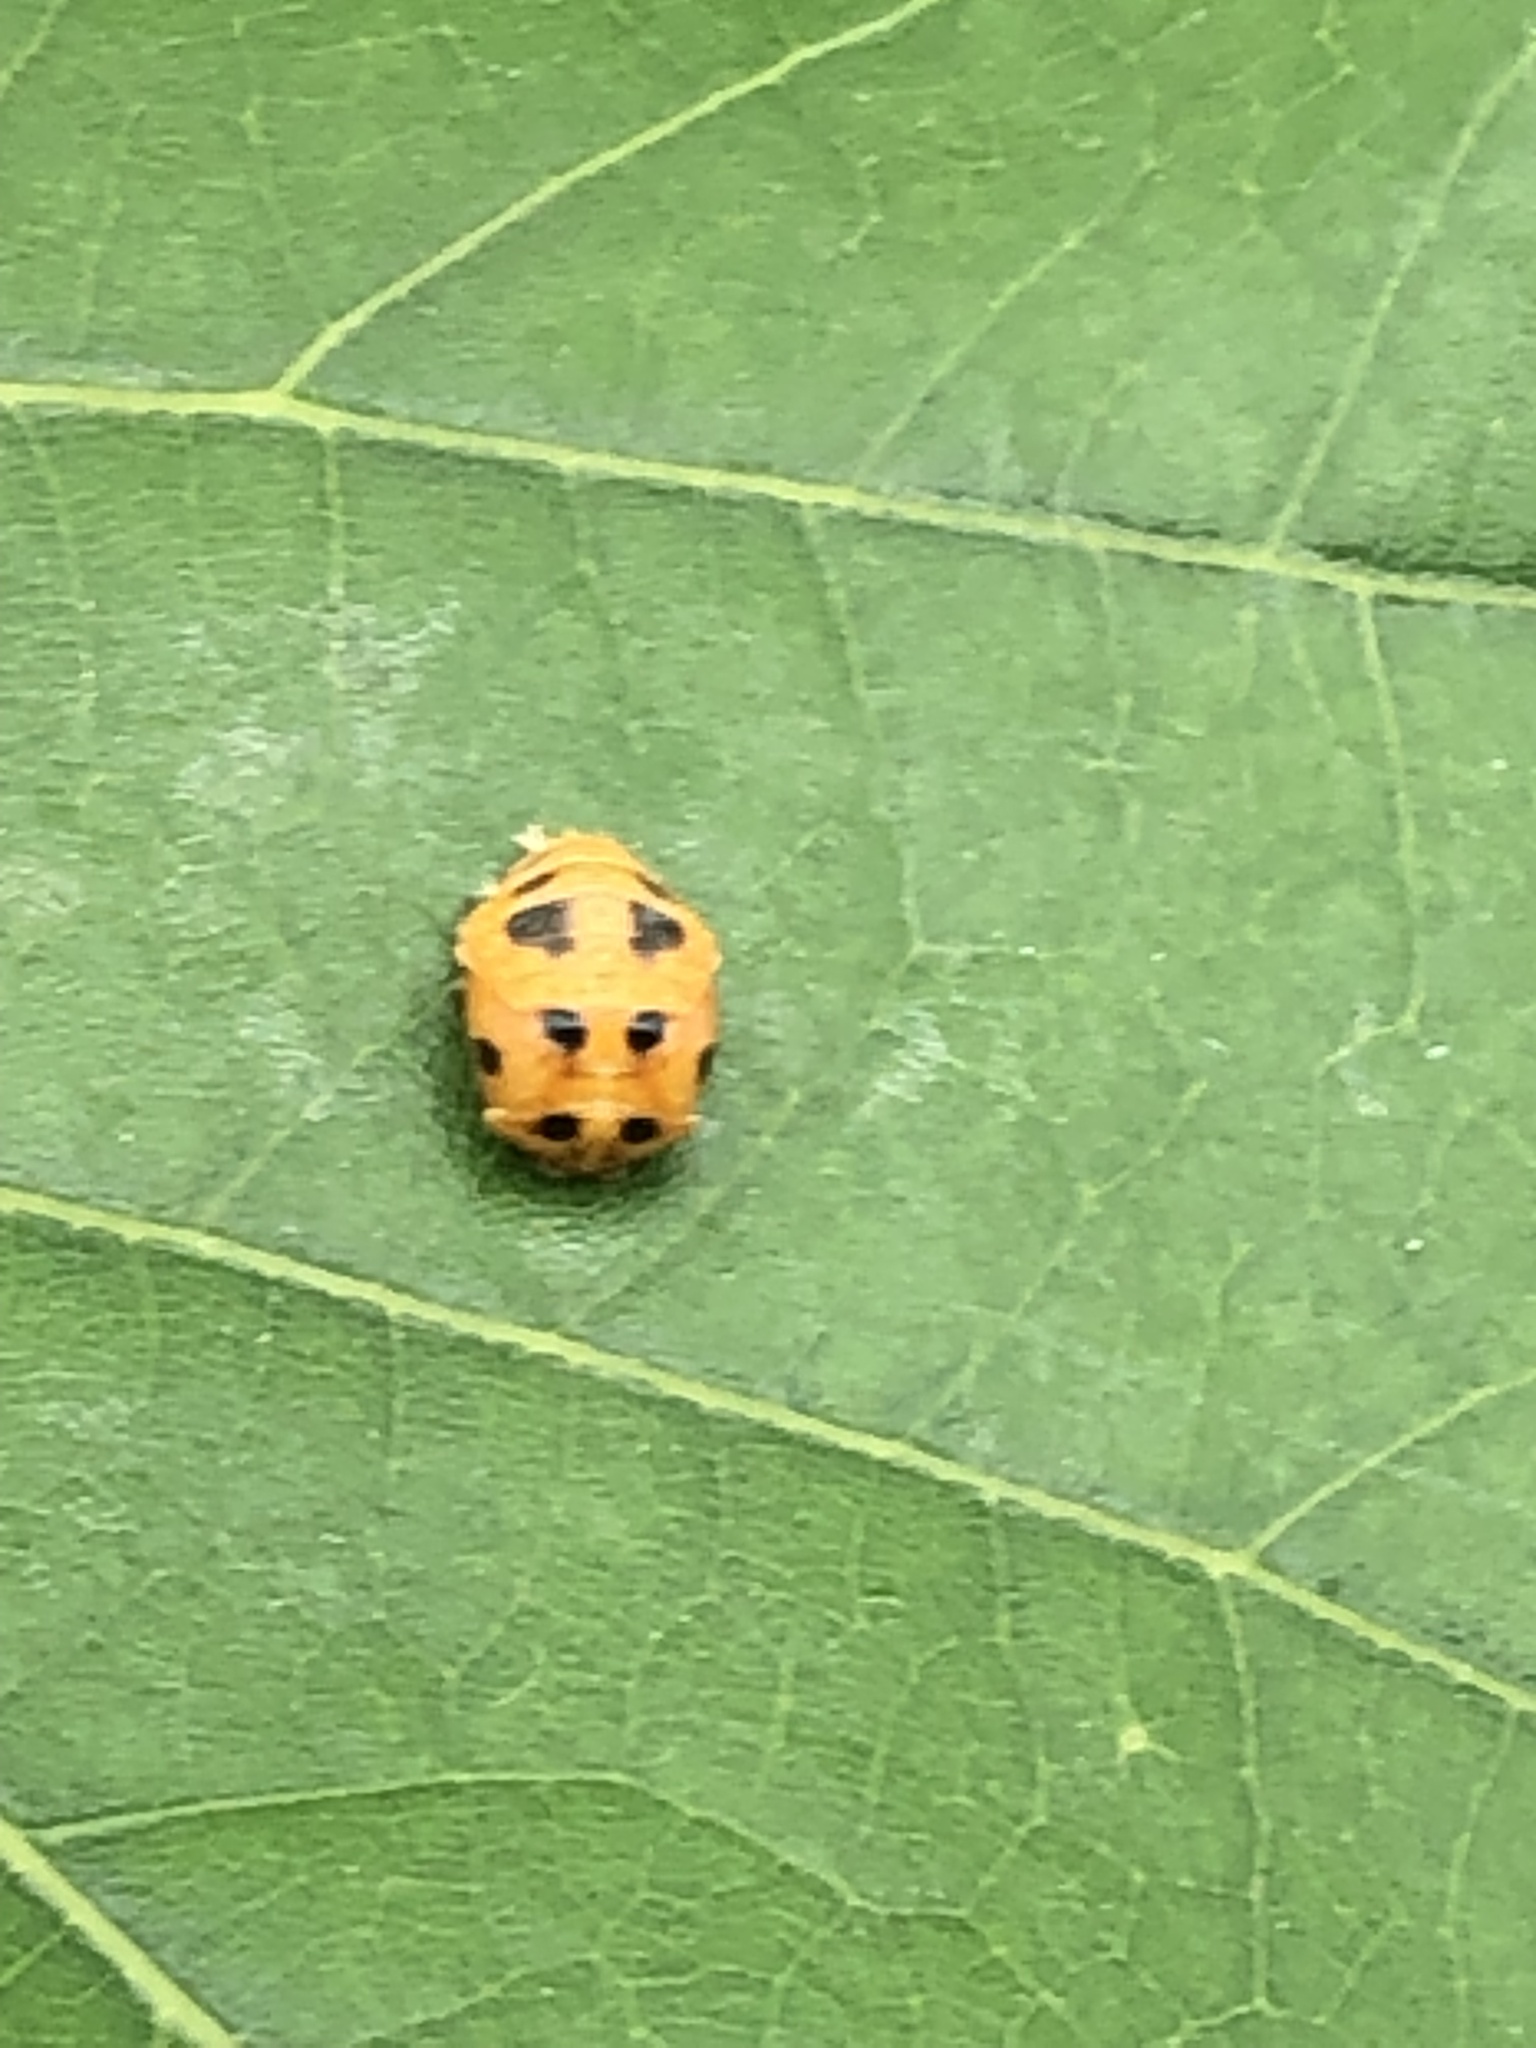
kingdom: Animalia
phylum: Arthropoda
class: Insecta
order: Coleoptera
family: Coccinellidae
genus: Harmonia
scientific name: Harmonia axyridis
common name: Harlequin ladybird
